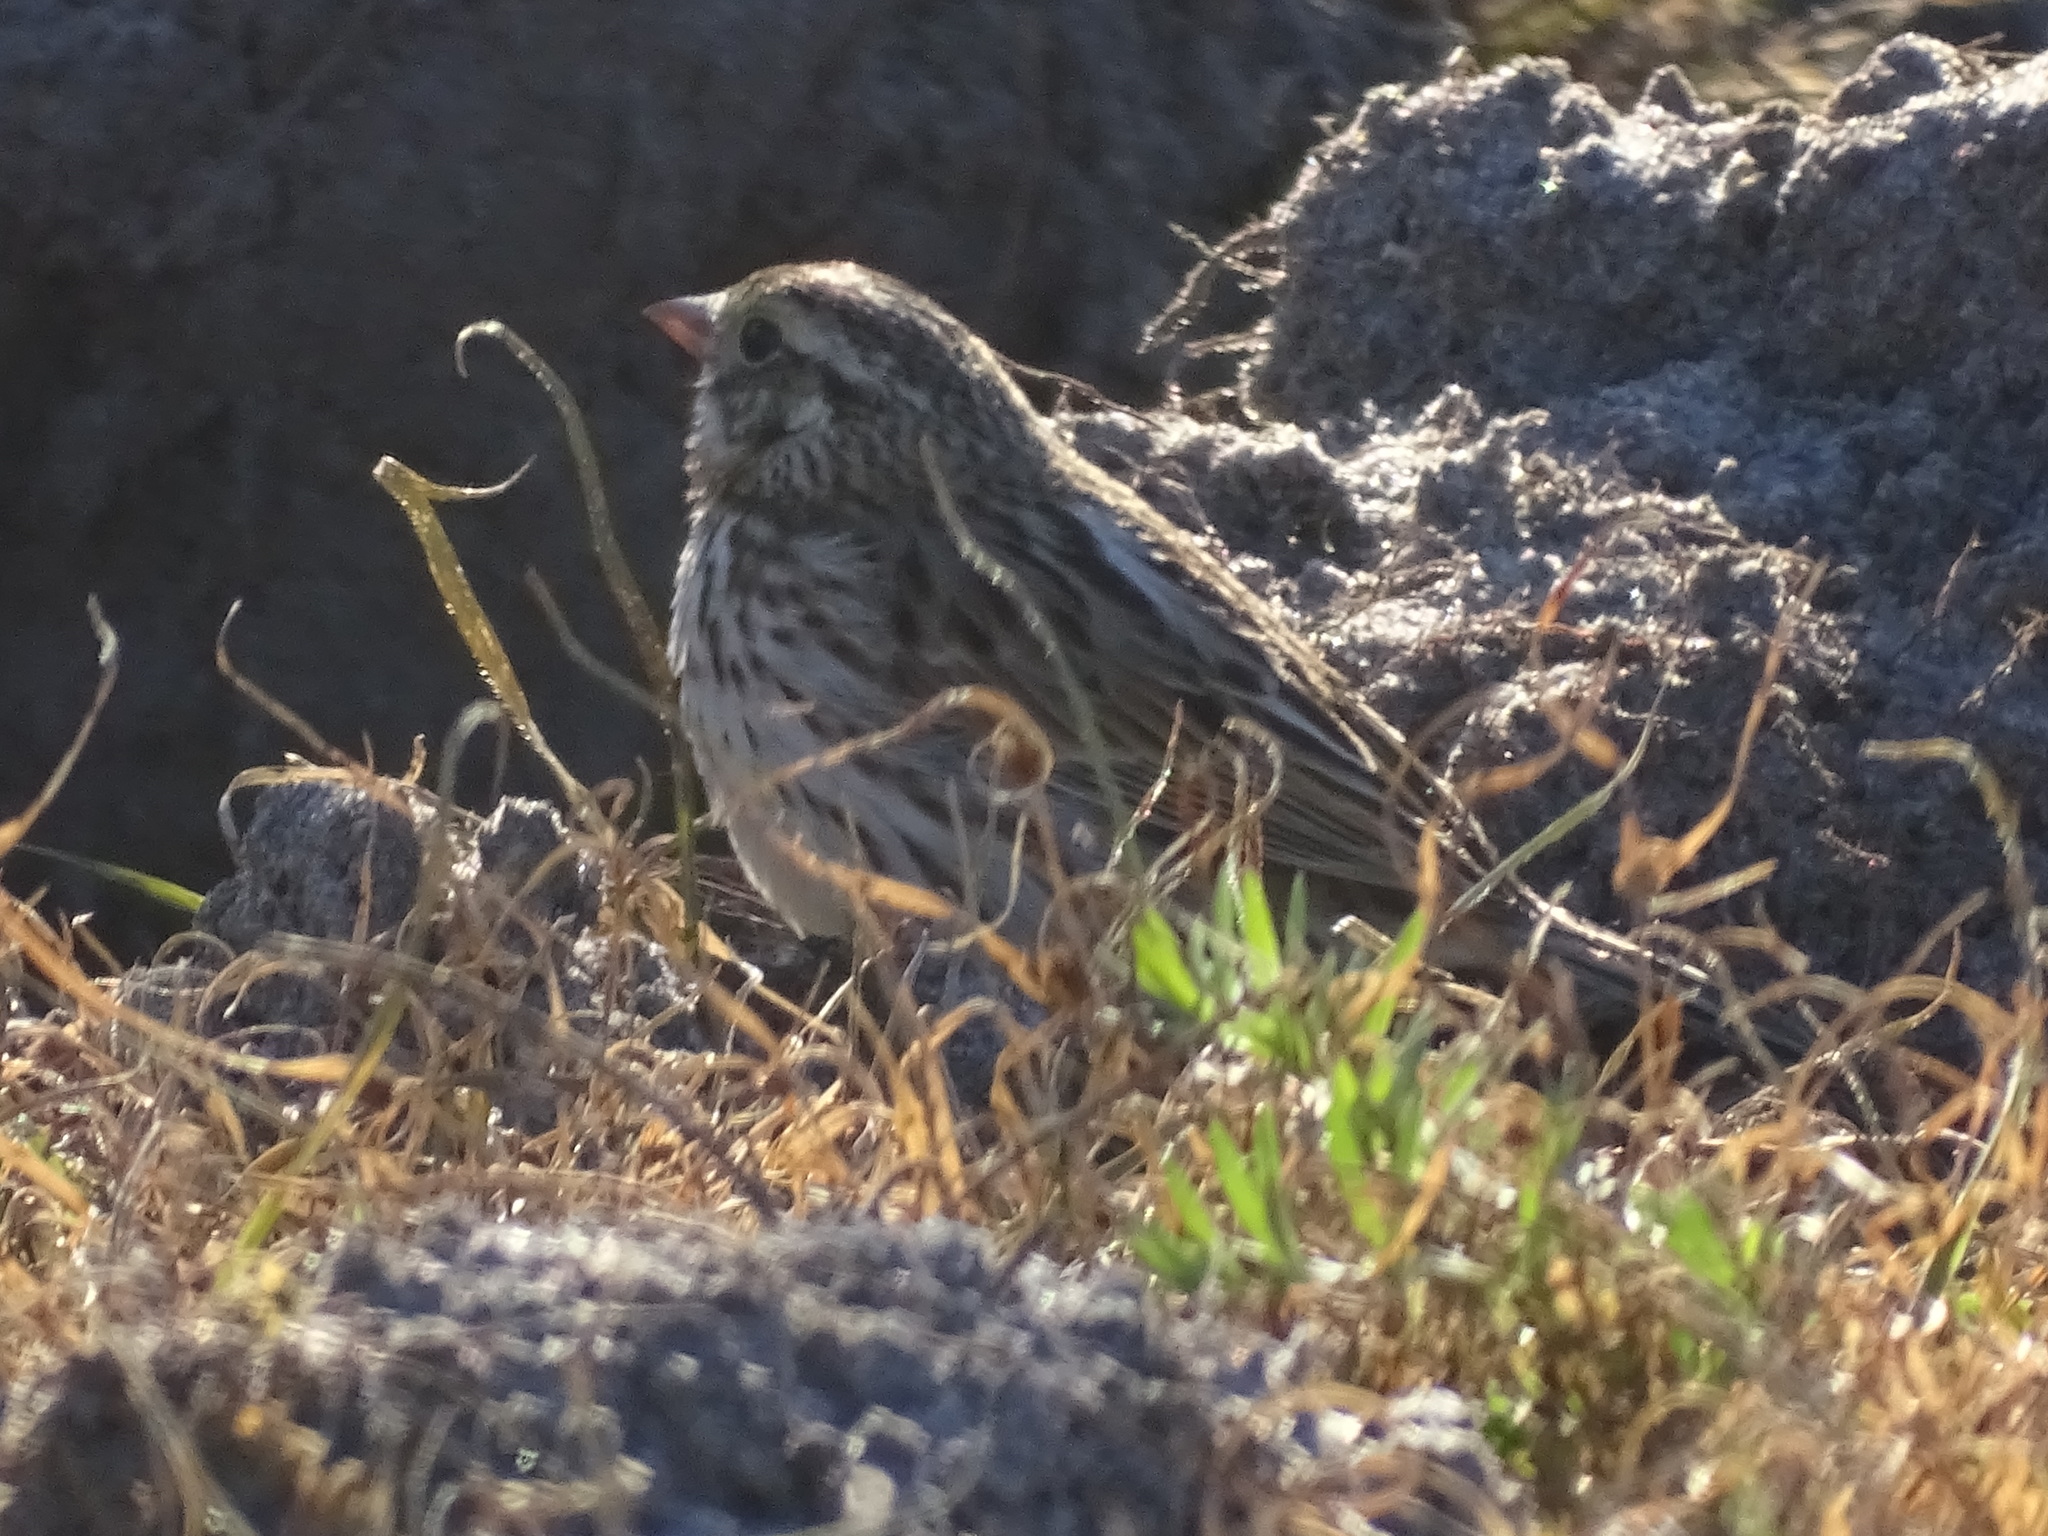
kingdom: Animalia
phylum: Chordata
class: Aves
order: Passeriformes
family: Passerellidae
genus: Passerculus
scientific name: Passerculus sandwichensis
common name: Savannah sparrow
